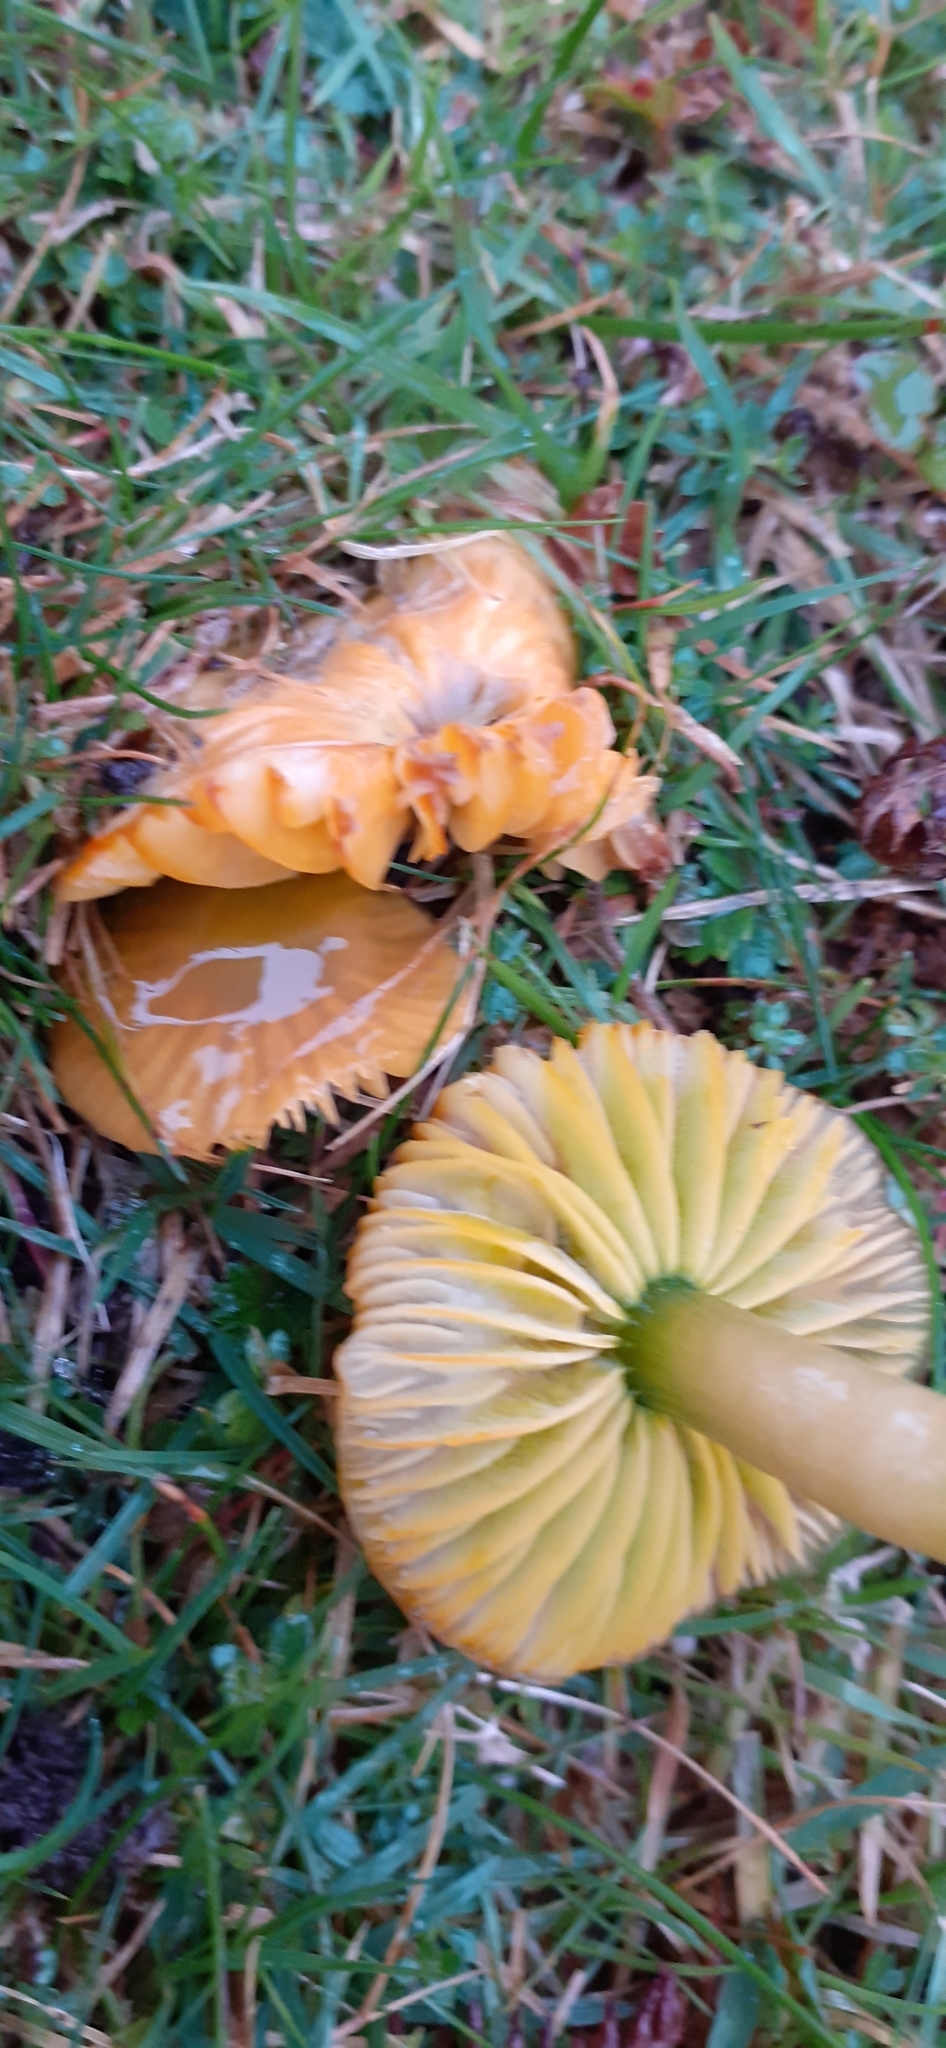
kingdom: Fungi
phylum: Basidiomycota
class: Agaricomycetes
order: Agaricales
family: Hygrophoraceae
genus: Gliophorus
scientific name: Gliophorus psittacinus
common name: Parrot wax-cap
